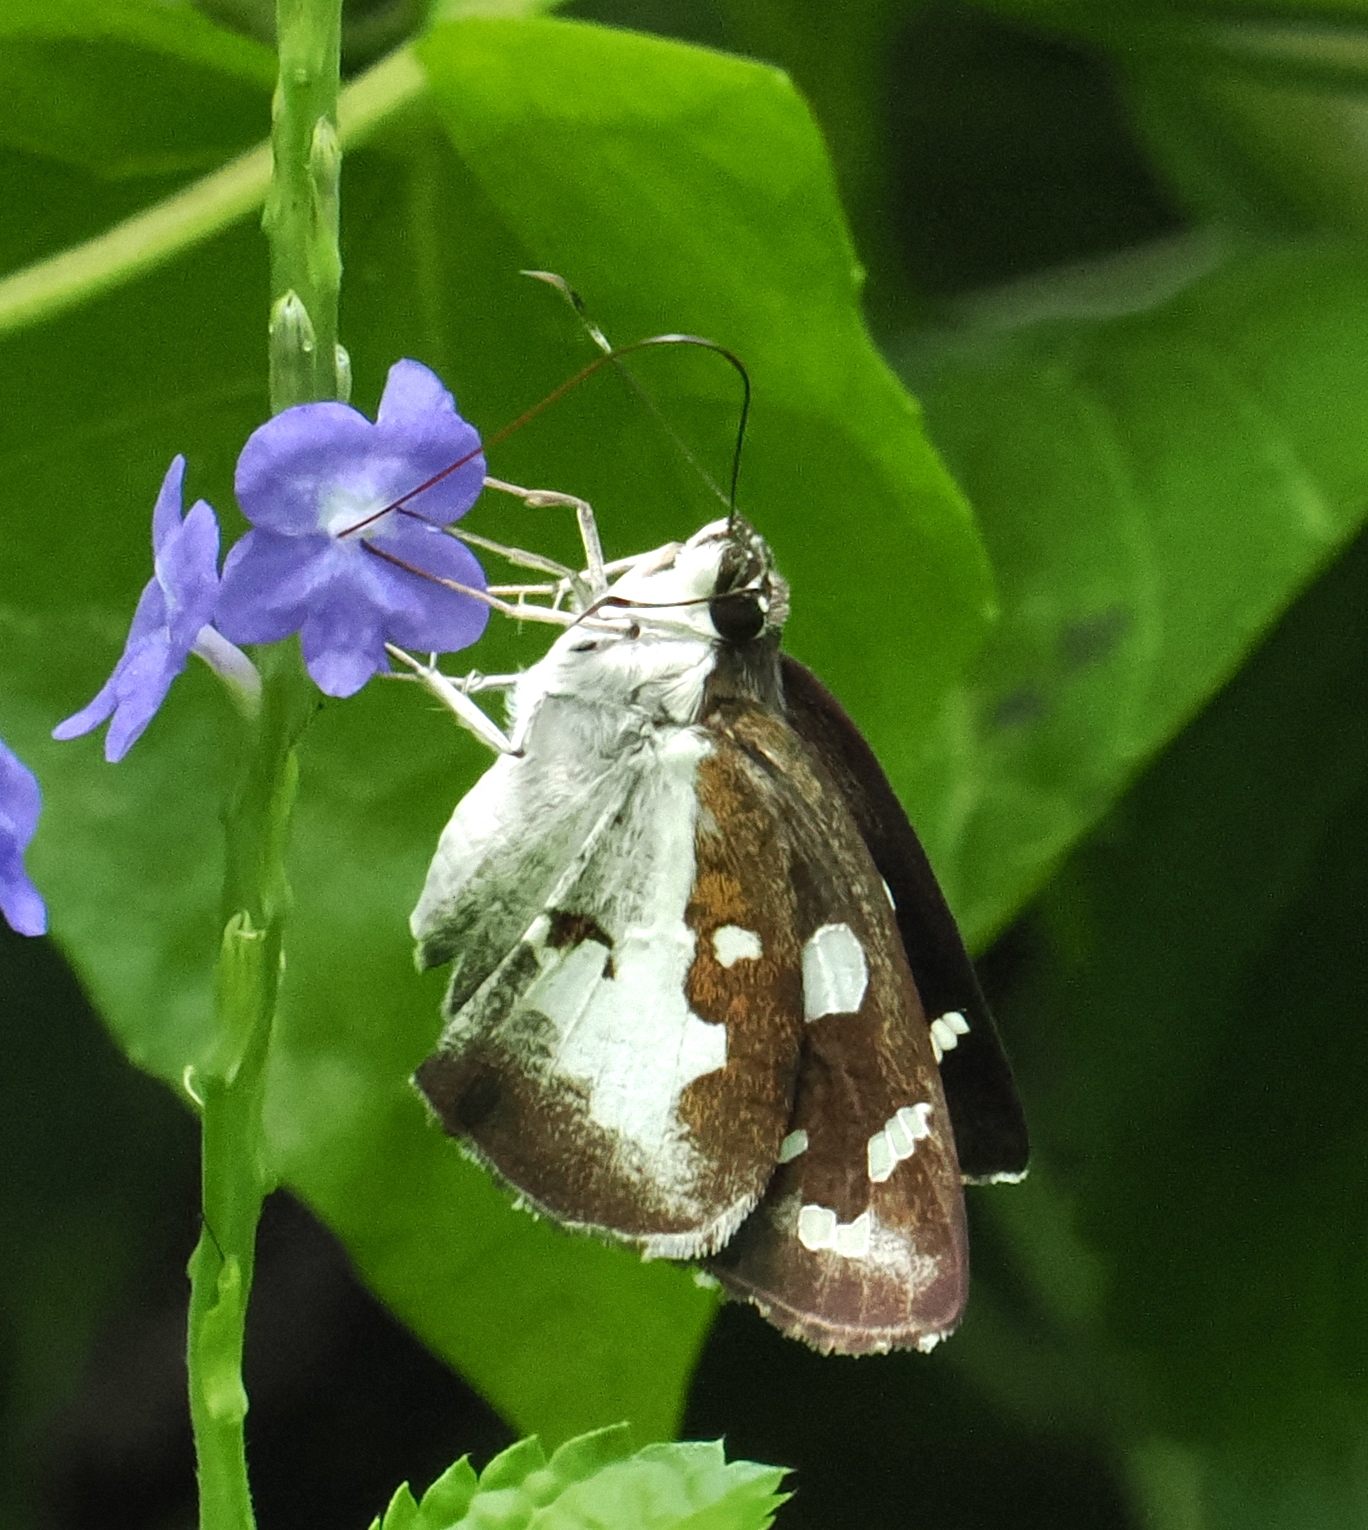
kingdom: Animalia
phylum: Arthropoda
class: Insecta
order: Lepidoptera
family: Hesperiidae
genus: Udaspes
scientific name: Udaspes folus
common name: Grass demon
